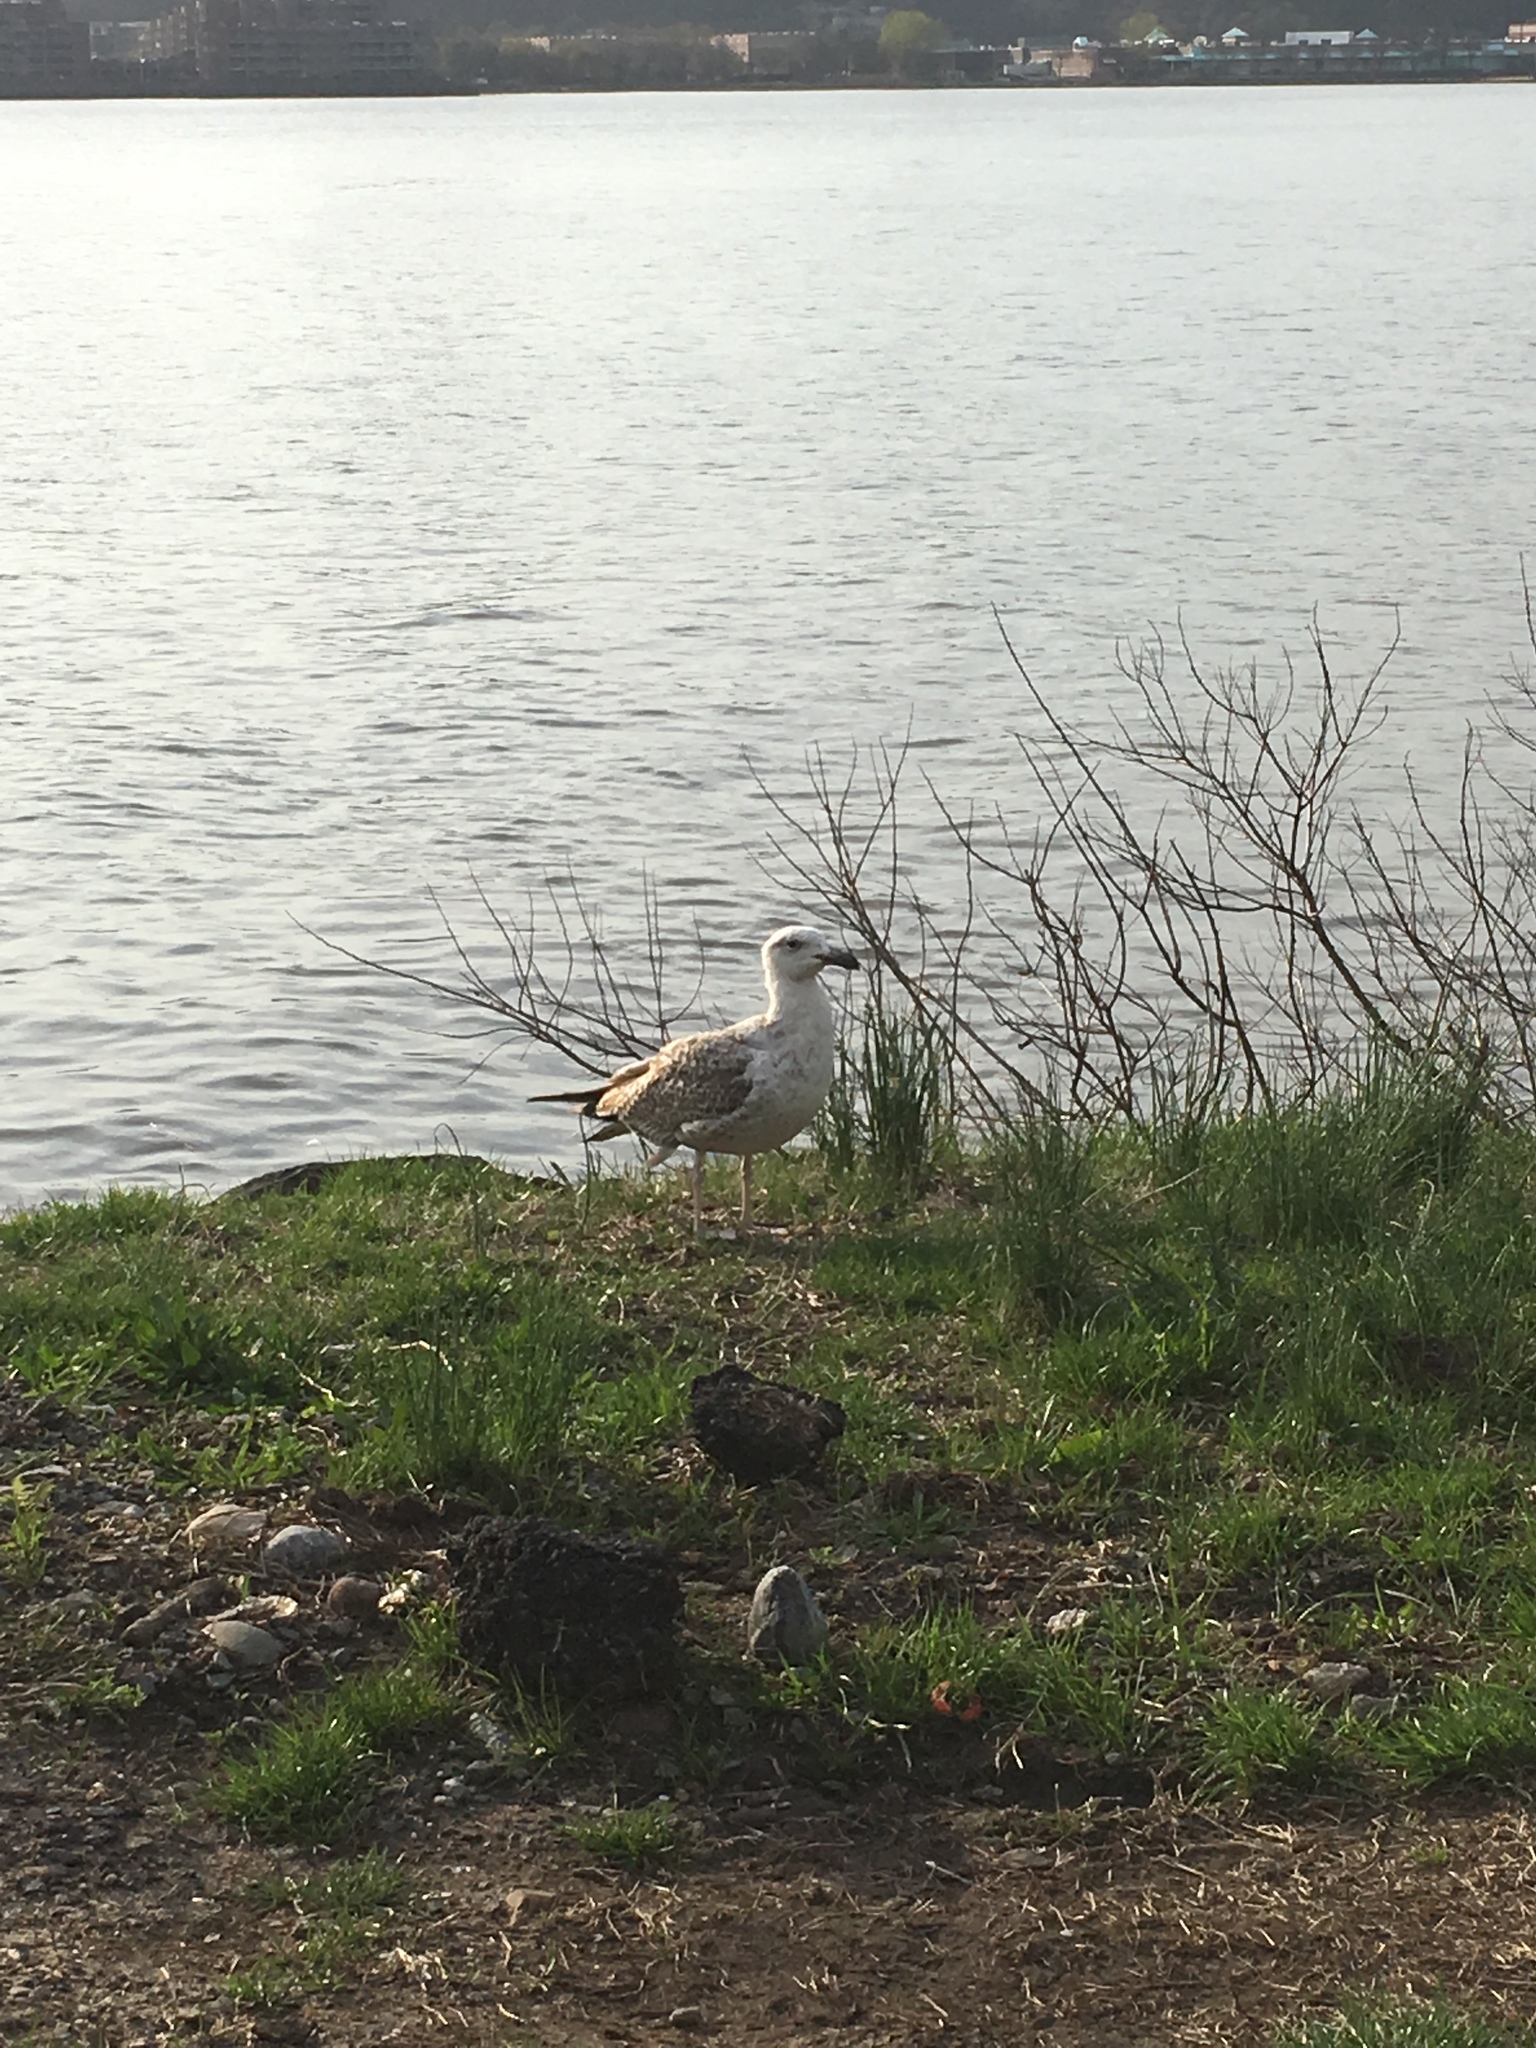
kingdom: Animalia
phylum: Chordata
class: Aves
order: Charadriiformes
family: Laridae
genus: Larus
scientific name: Larus marinus
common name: Great black-backed gull
